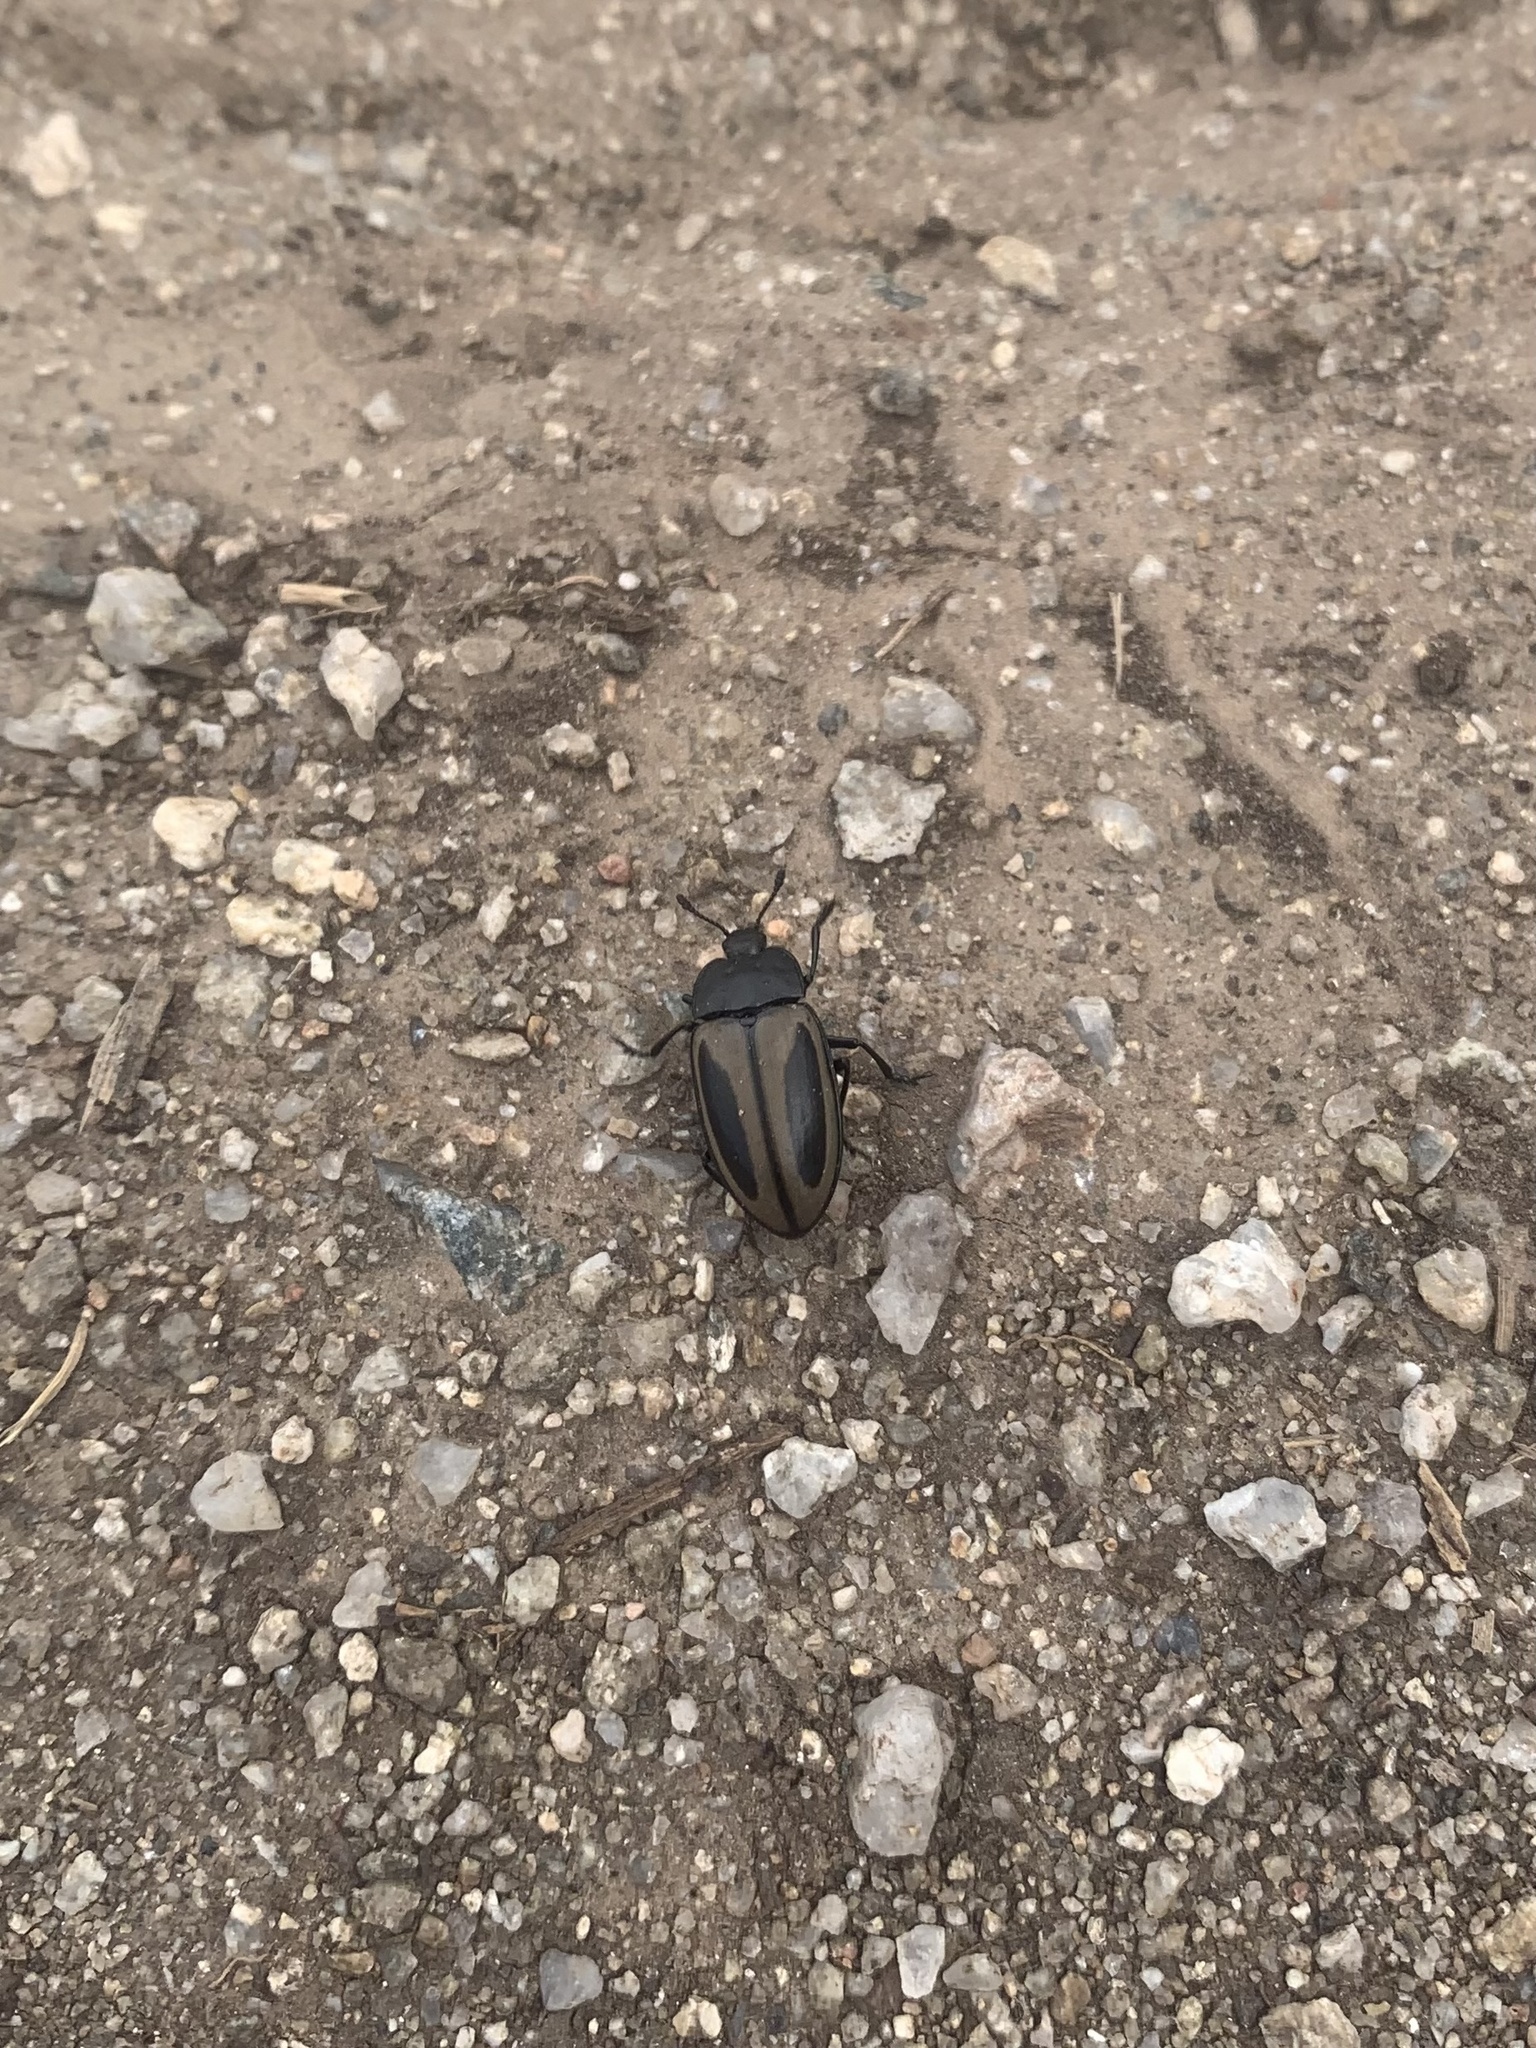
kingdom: Animalia
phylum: Arthropoda
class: Insecta
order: Coleoptera
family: Erotylidae
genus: Iphiclus
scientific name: Iphiclus
